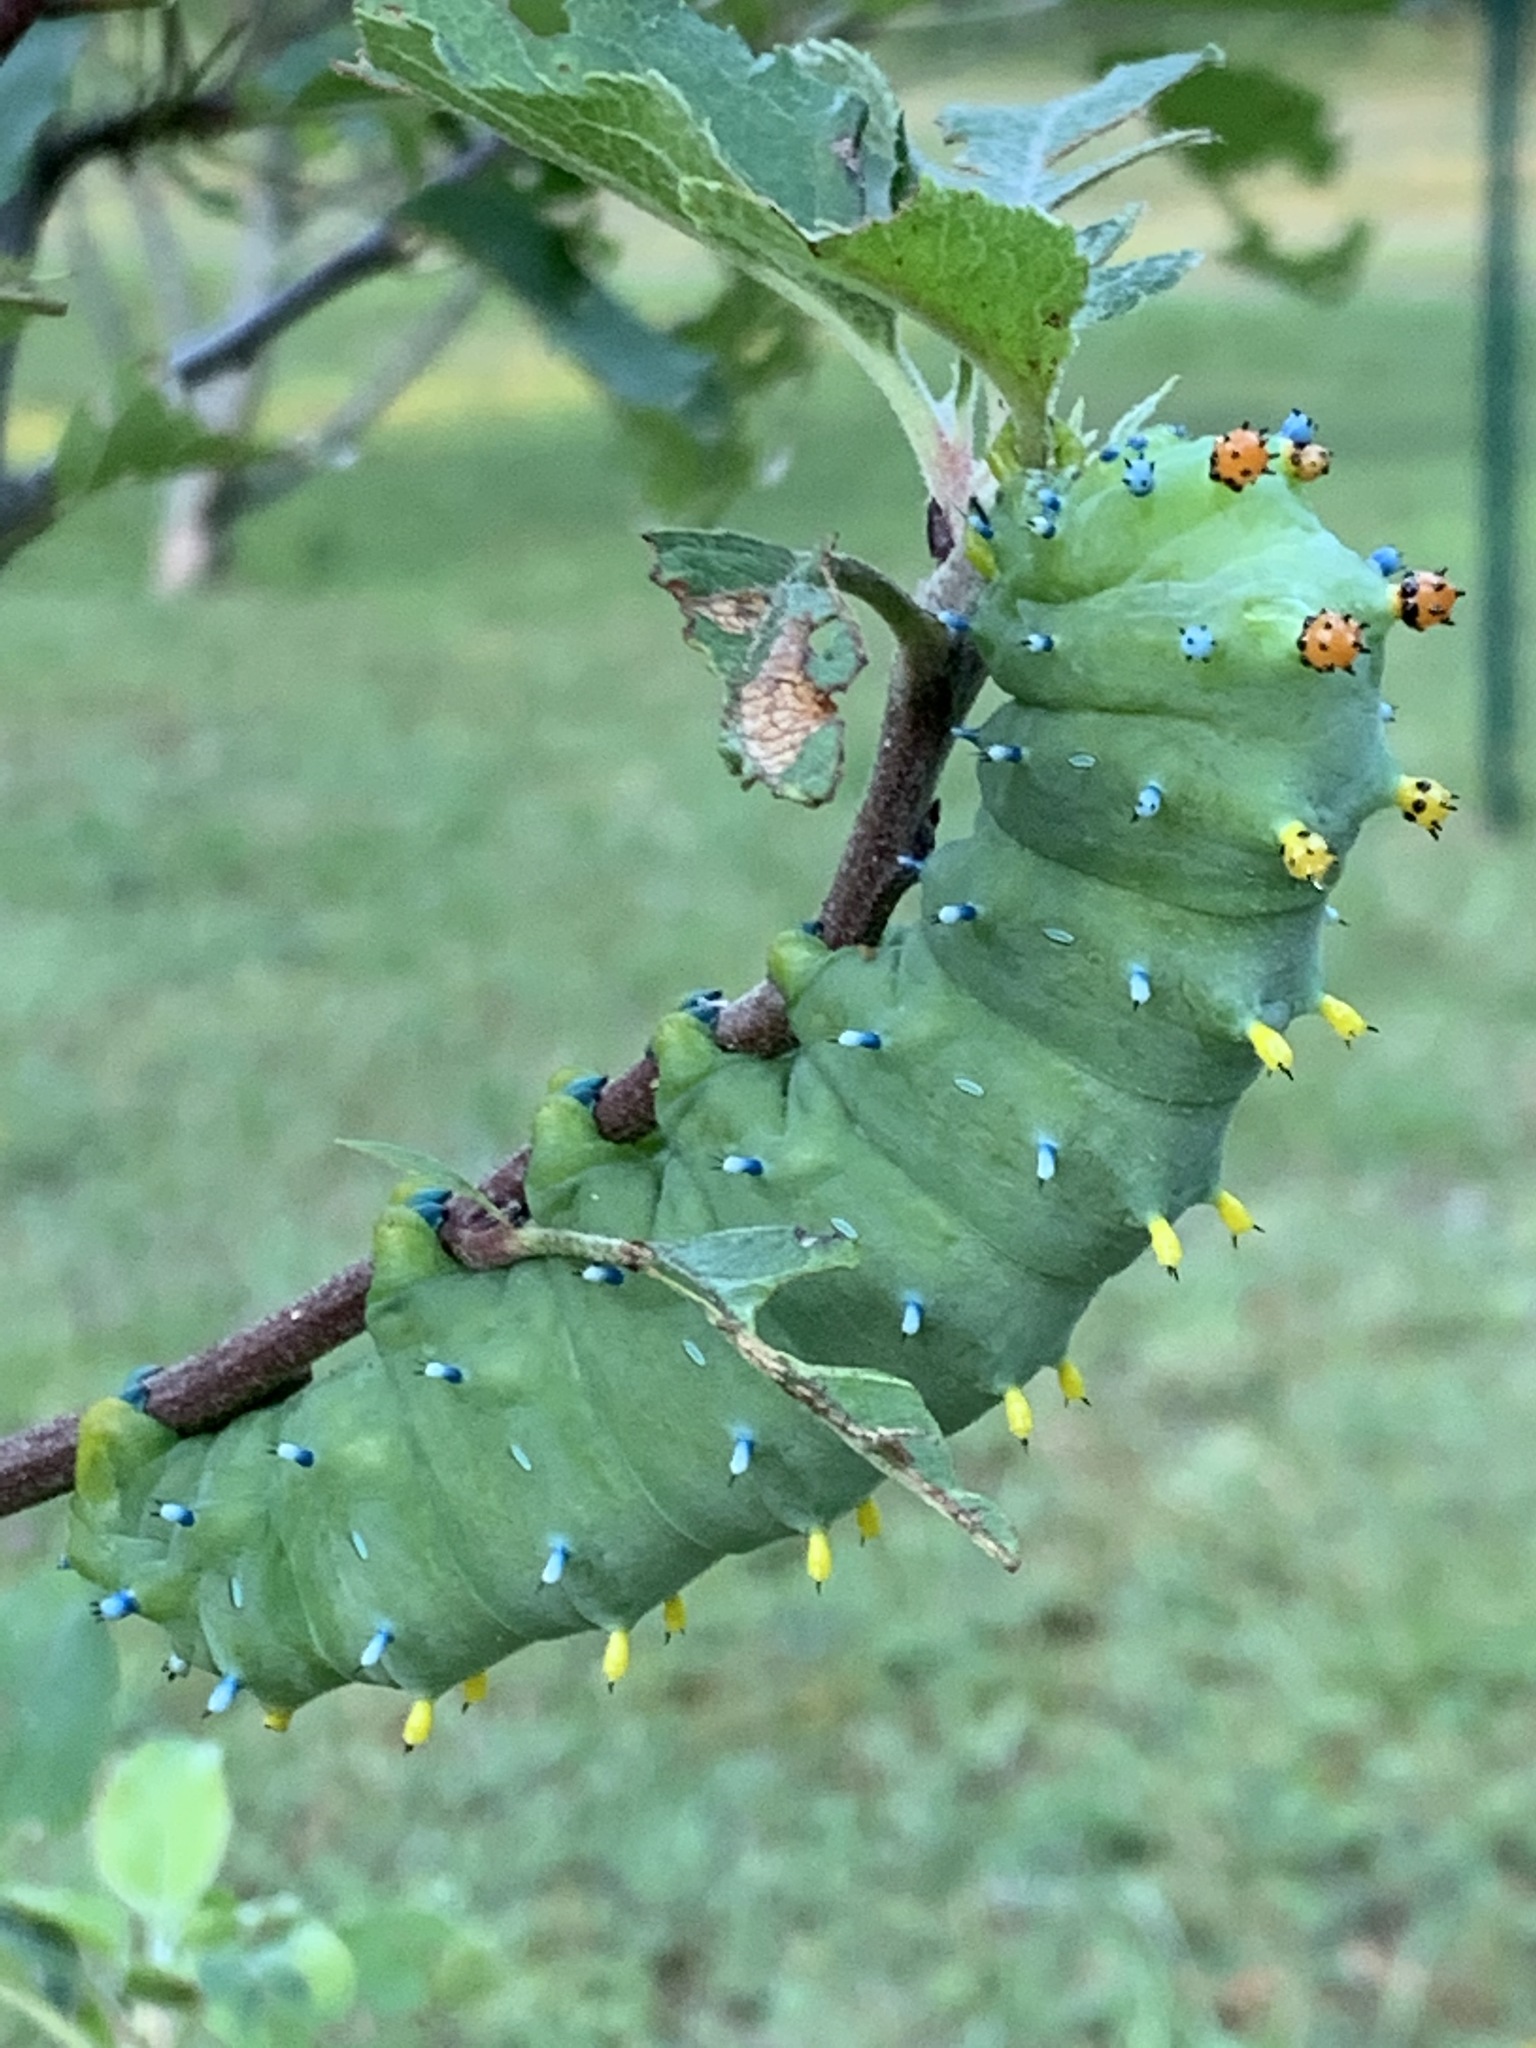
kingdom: Animalia
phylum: Arthropoda
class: Insecta
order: Lepidoptera
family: Saturniidae
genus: Hyalophora
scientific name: Hyalophora cecropia
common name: Cecropia silkmoth
